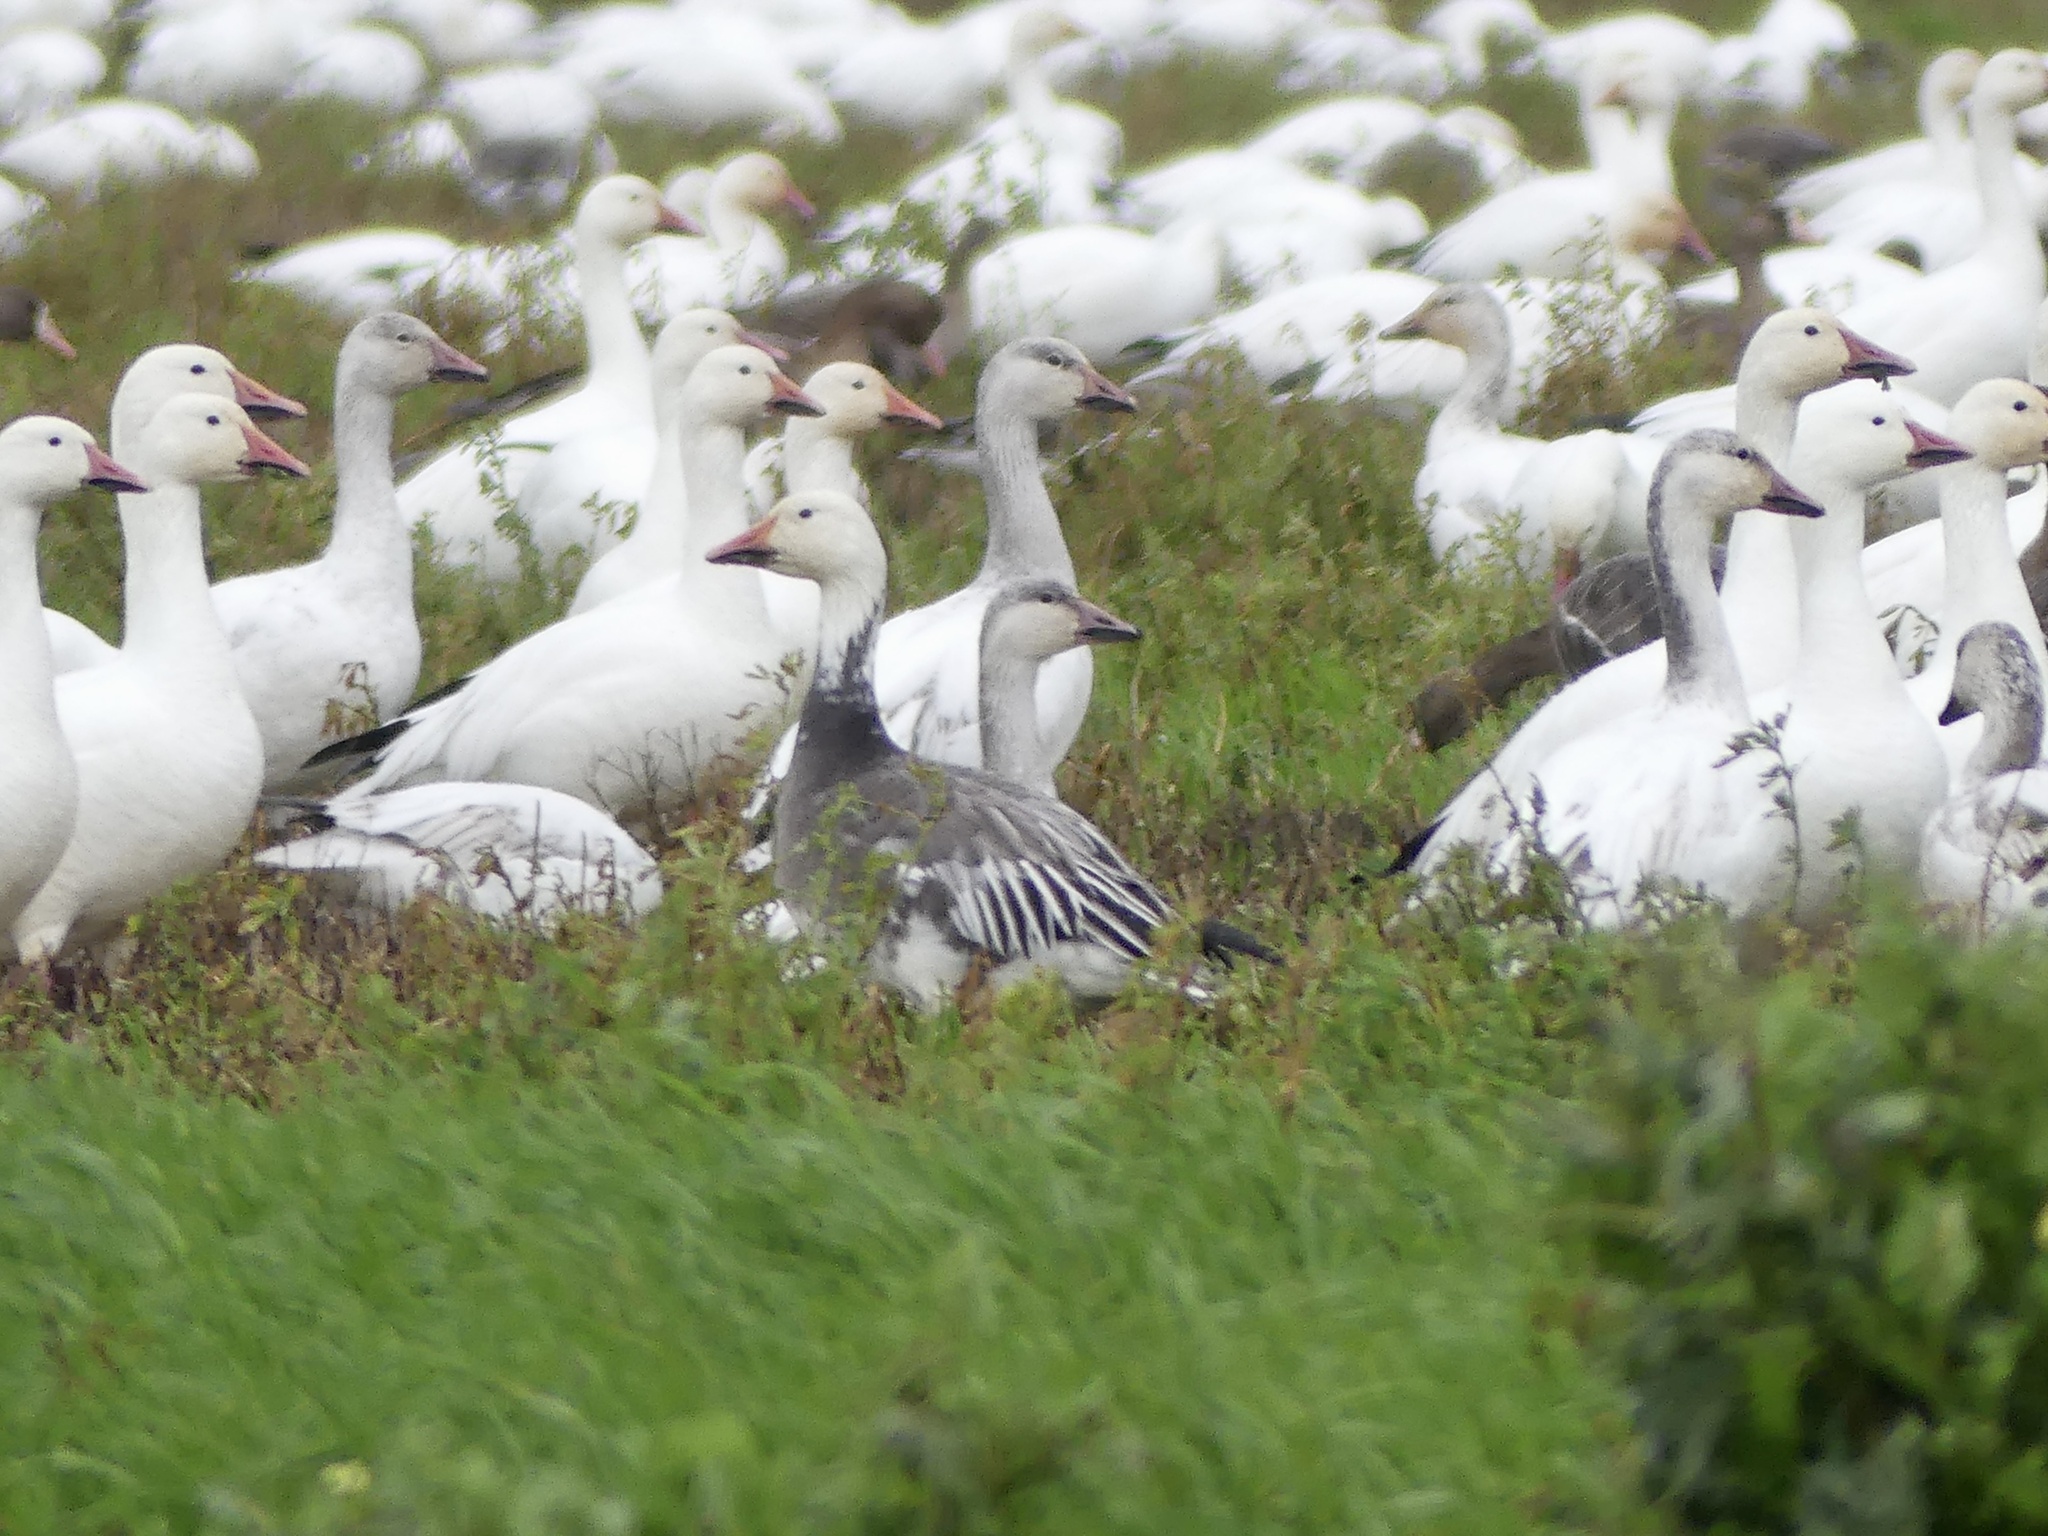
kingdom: Animalia
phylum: Chordata
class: Aves
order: Anseriformes
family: Anatidae
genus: Anser
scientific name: Anser caerulescens
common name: Snow goose
